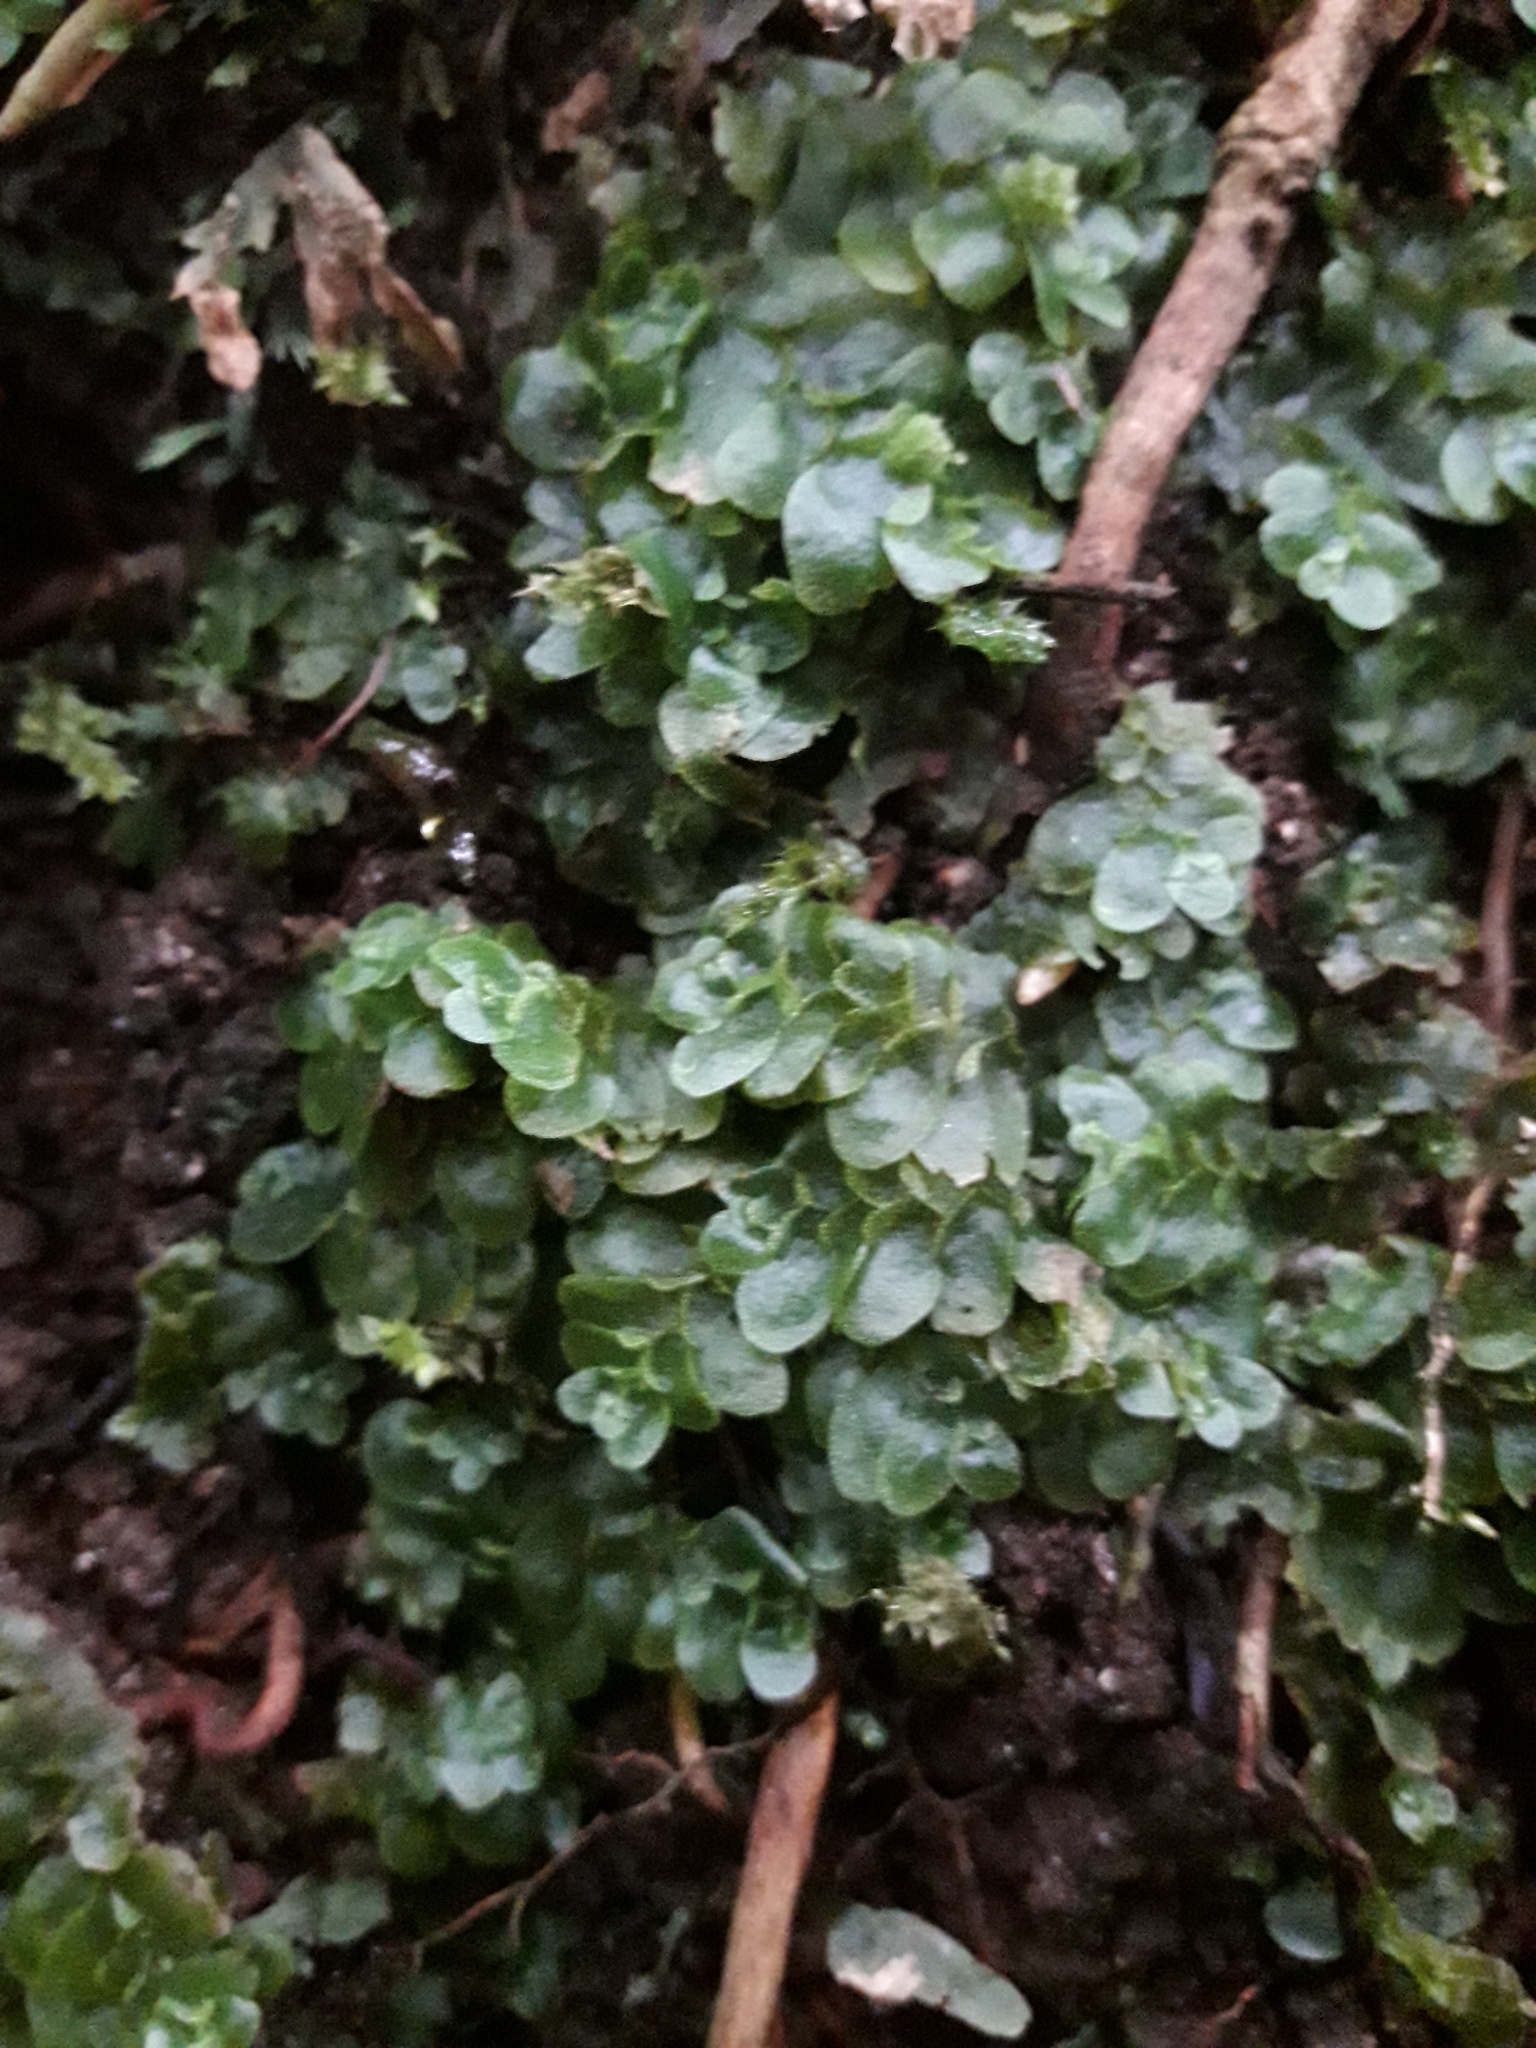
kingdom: Plantae
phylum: Marchantiophyta
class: Haplomitriopsida
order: Treubiales
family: Treubiaceae
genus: Treubia
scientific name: Treubia lacunosa
